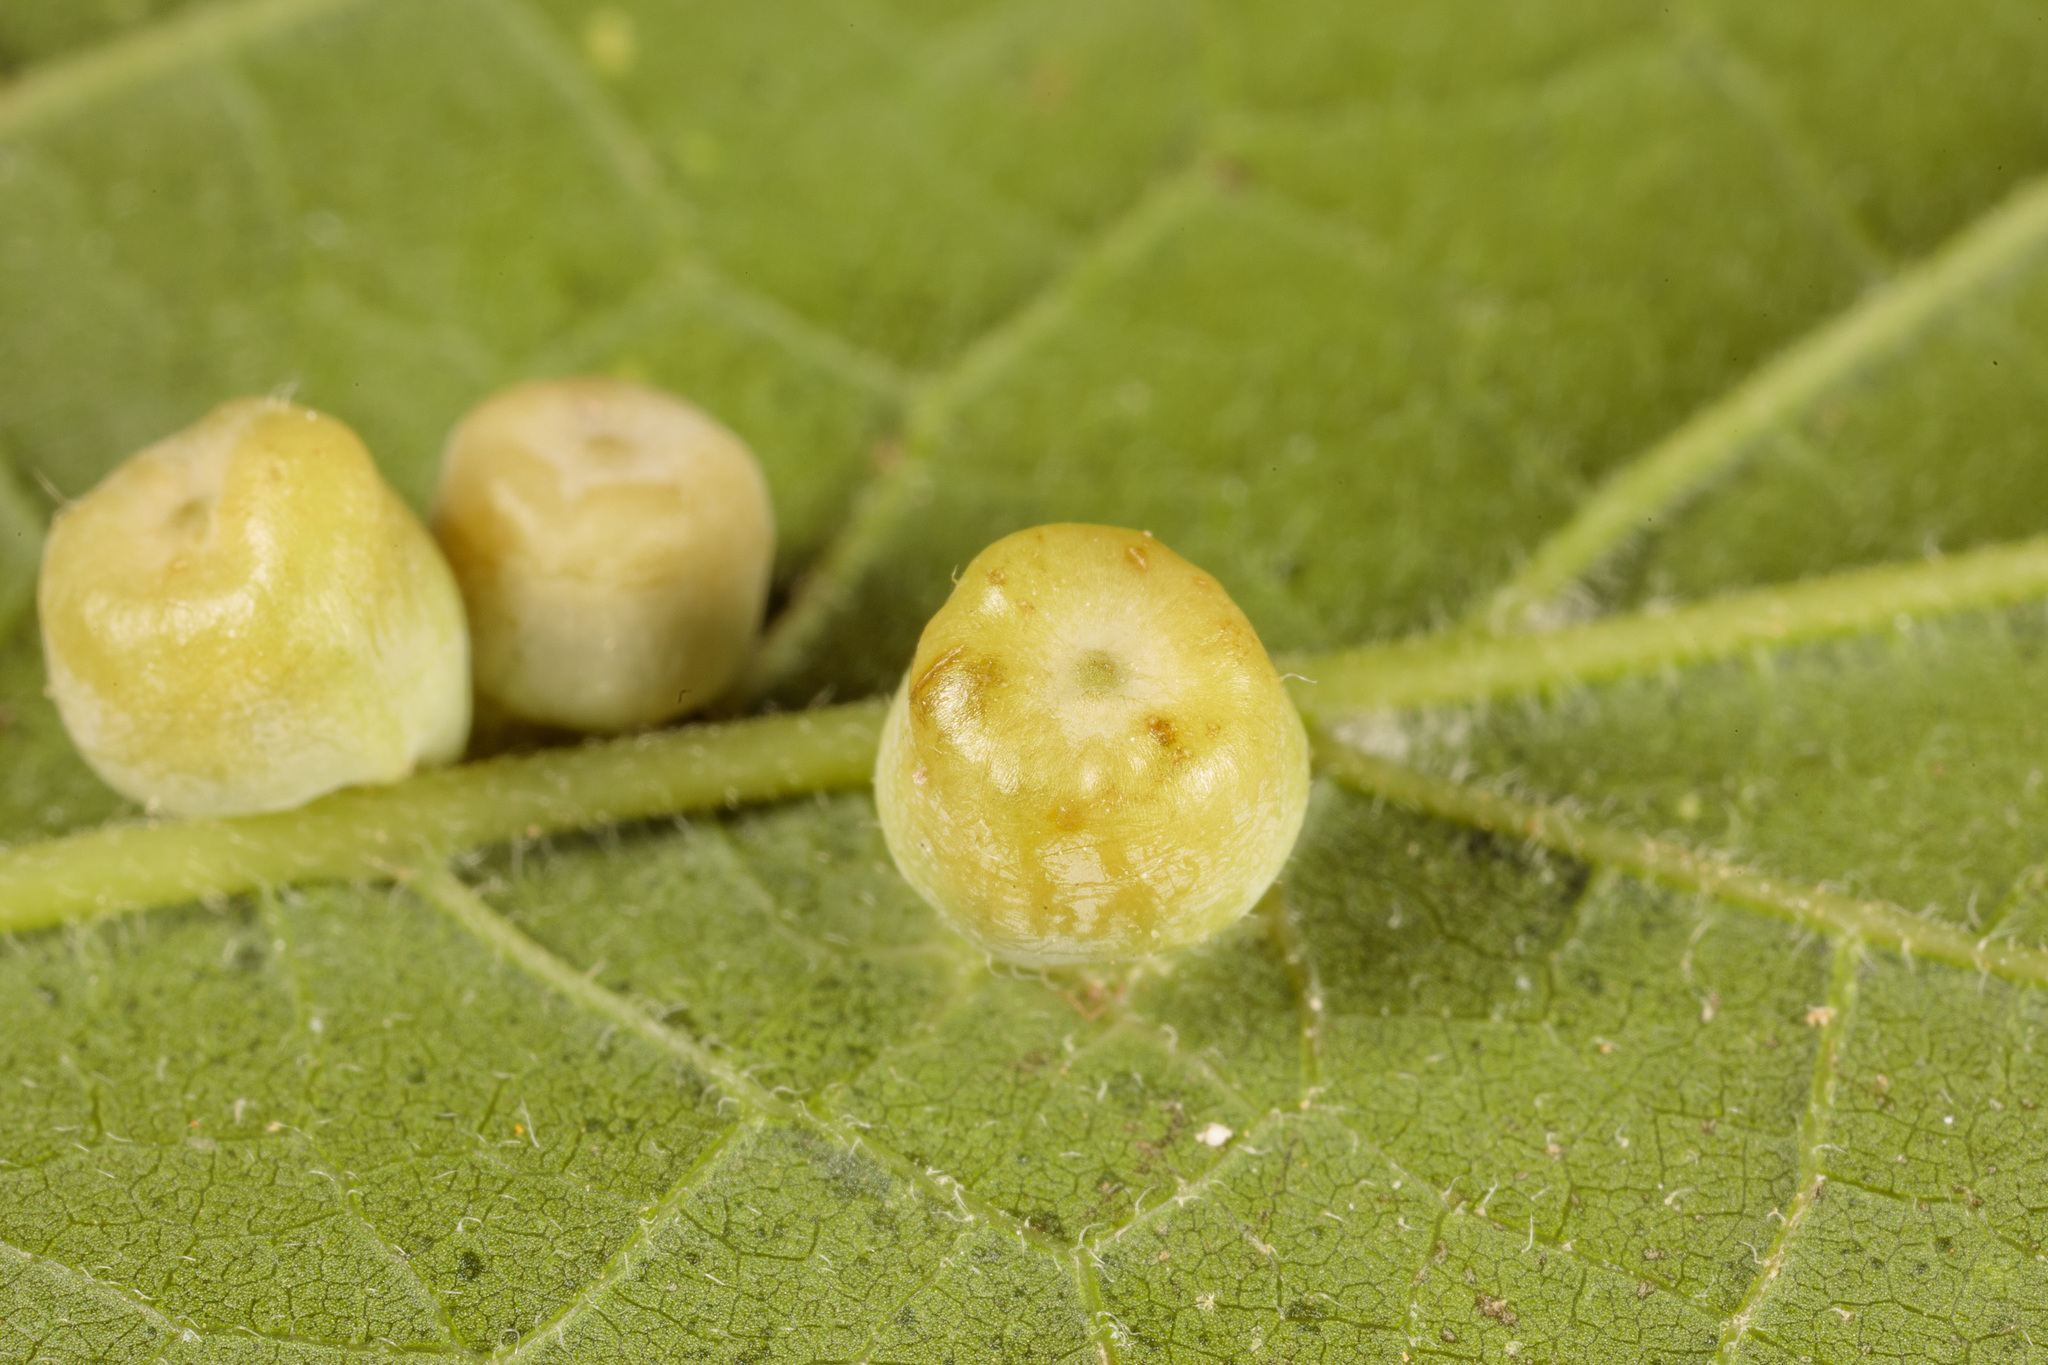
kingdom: Animalia
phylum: Arthropoda
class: Insecta
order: Hemiptera
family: Aphalaridae
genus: Pachypsylla
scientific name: Pachypsylla celtidismamma
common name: Hackberry nipplegall psyllid
